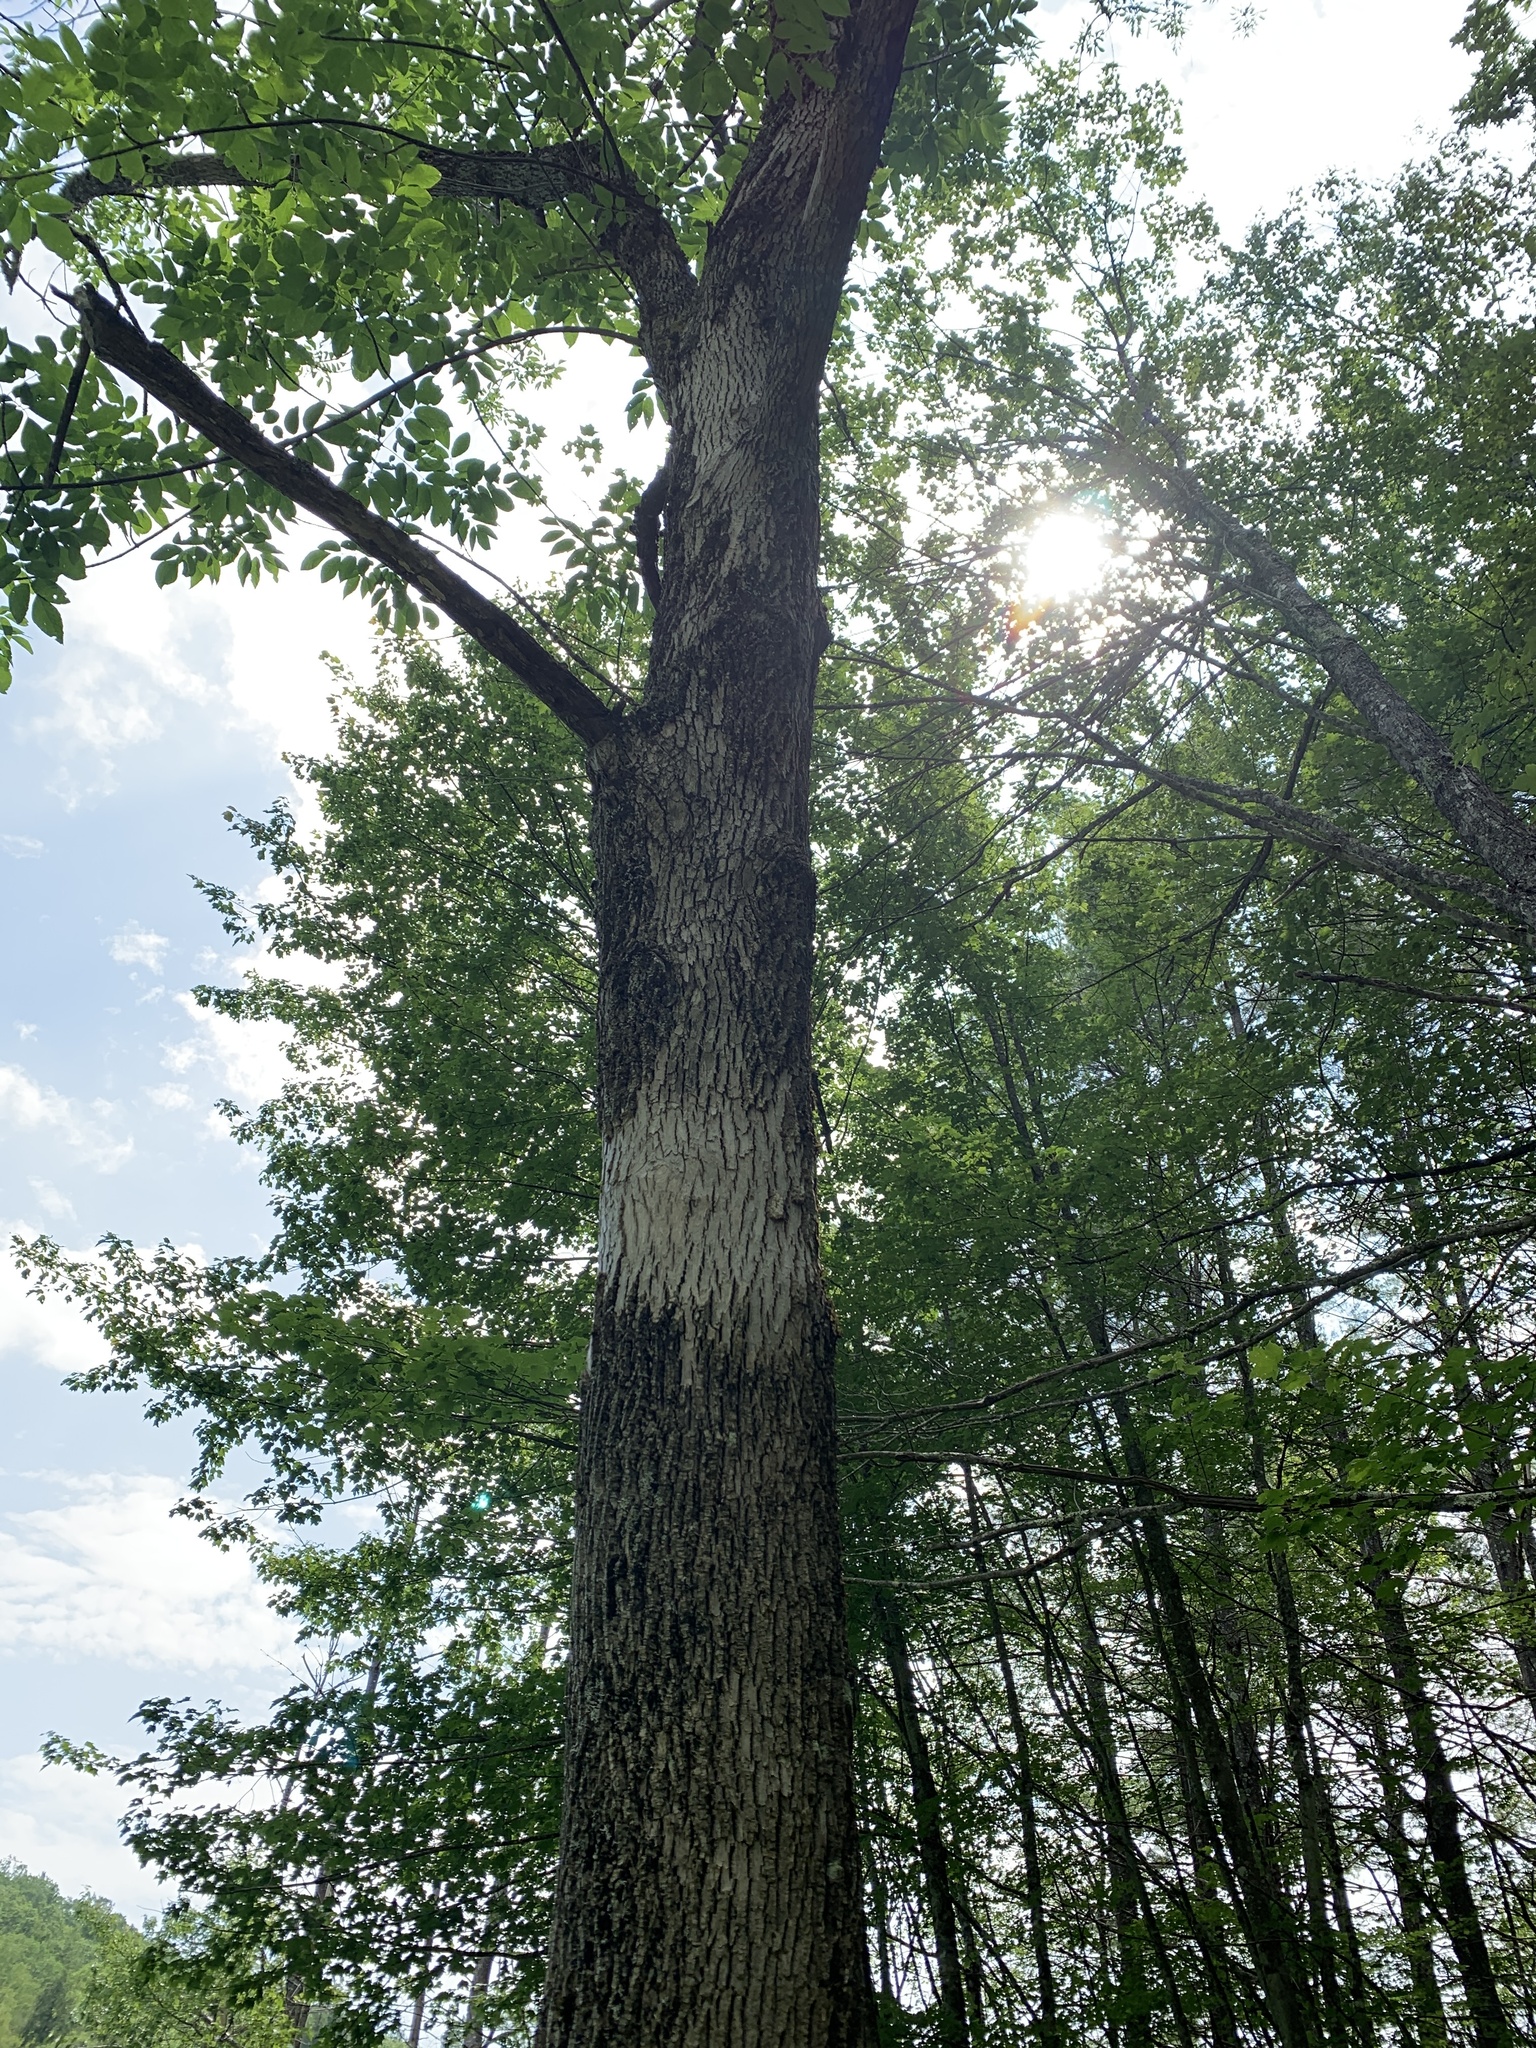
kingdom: Plantae
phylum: Tracheophyta
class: Magnoliopsida
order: Lamiales
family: Oleaceae
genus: Fraxinus
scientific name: Fraxinus americana
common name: White ash
